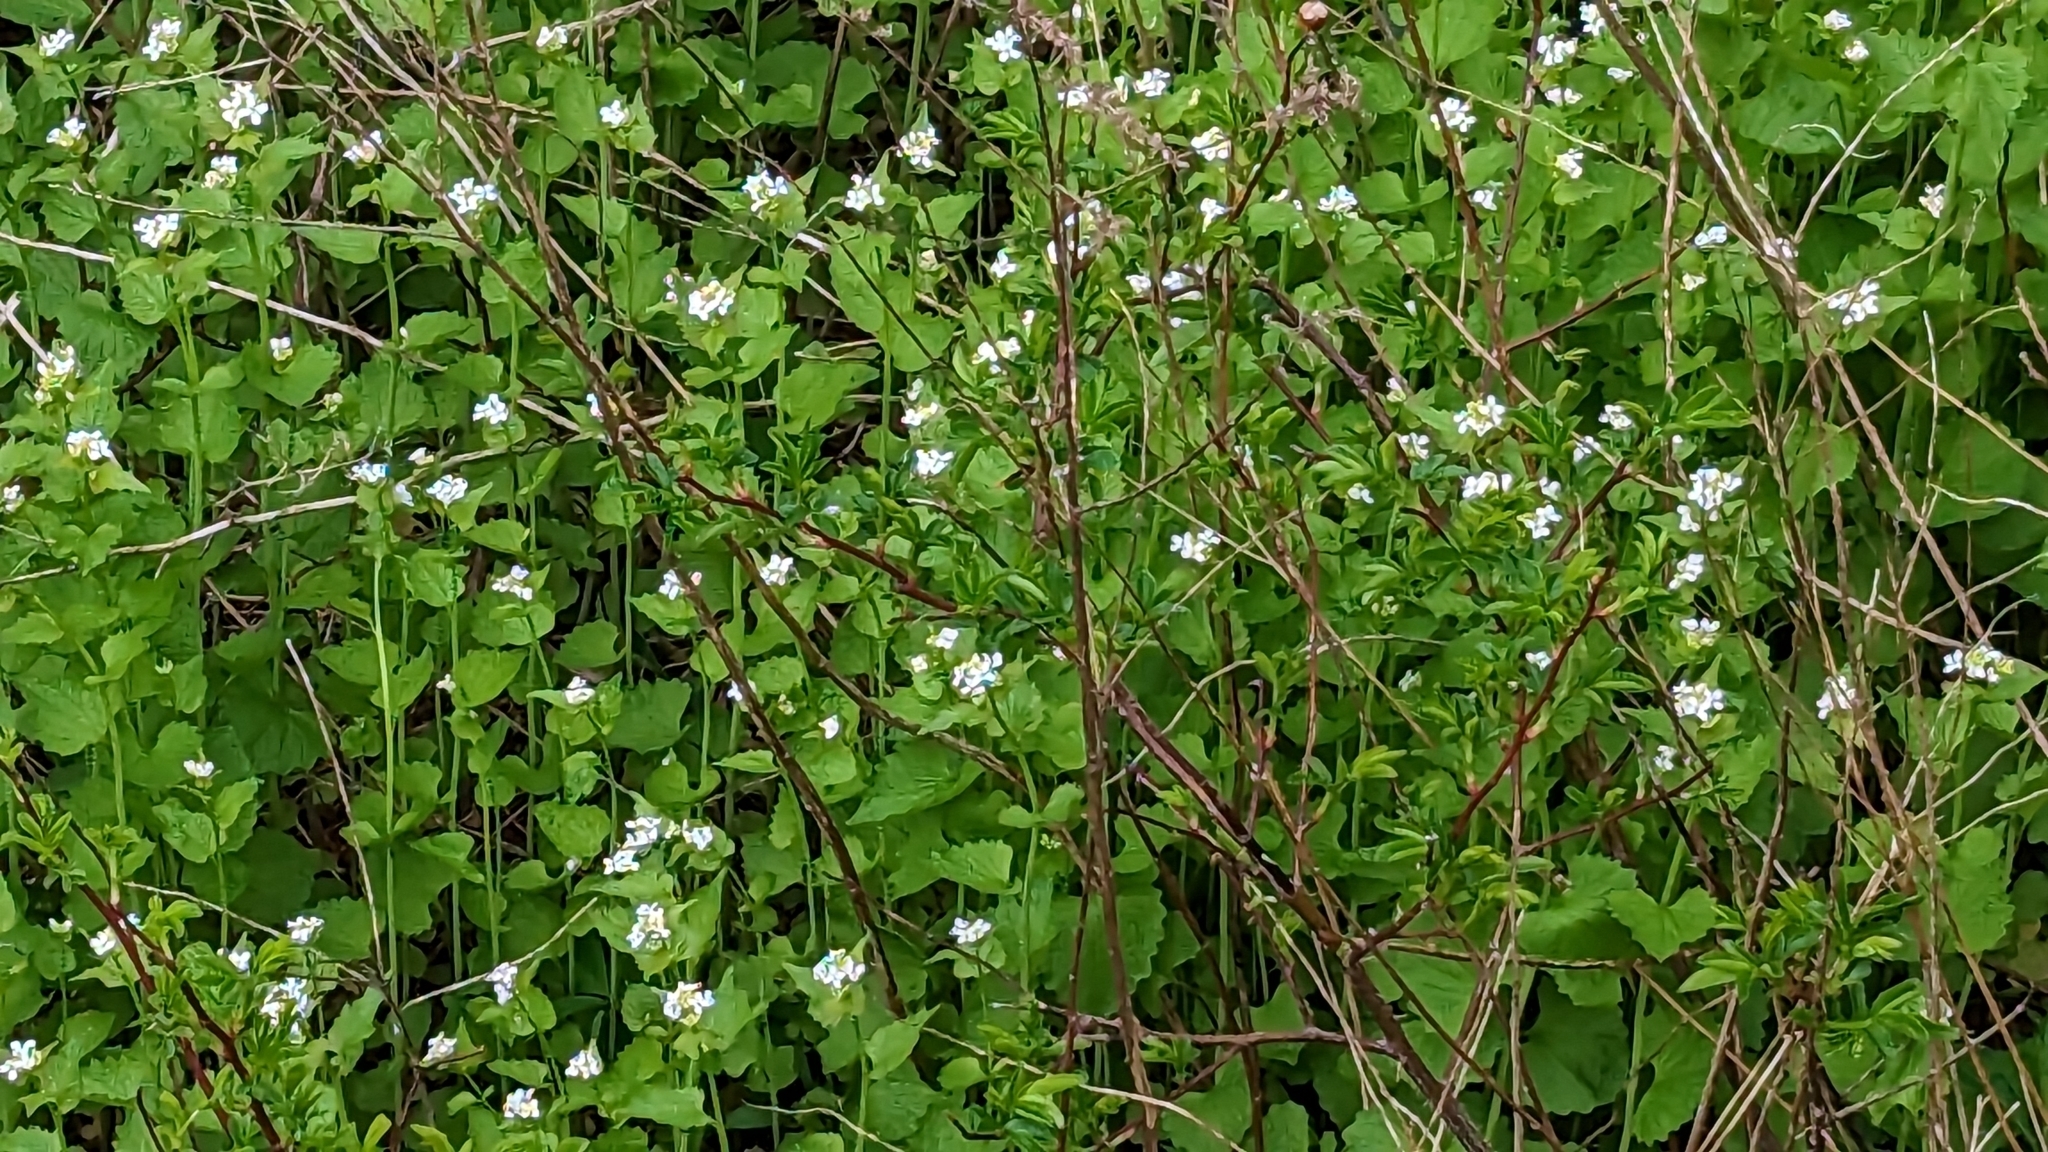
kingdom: Plantae
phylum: Tracheophyta
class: Magnoliopsida
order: Brassicales
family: Brassicaceae
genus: Alliaria
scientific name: Alliaria petiolata
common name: Garlic mustard
